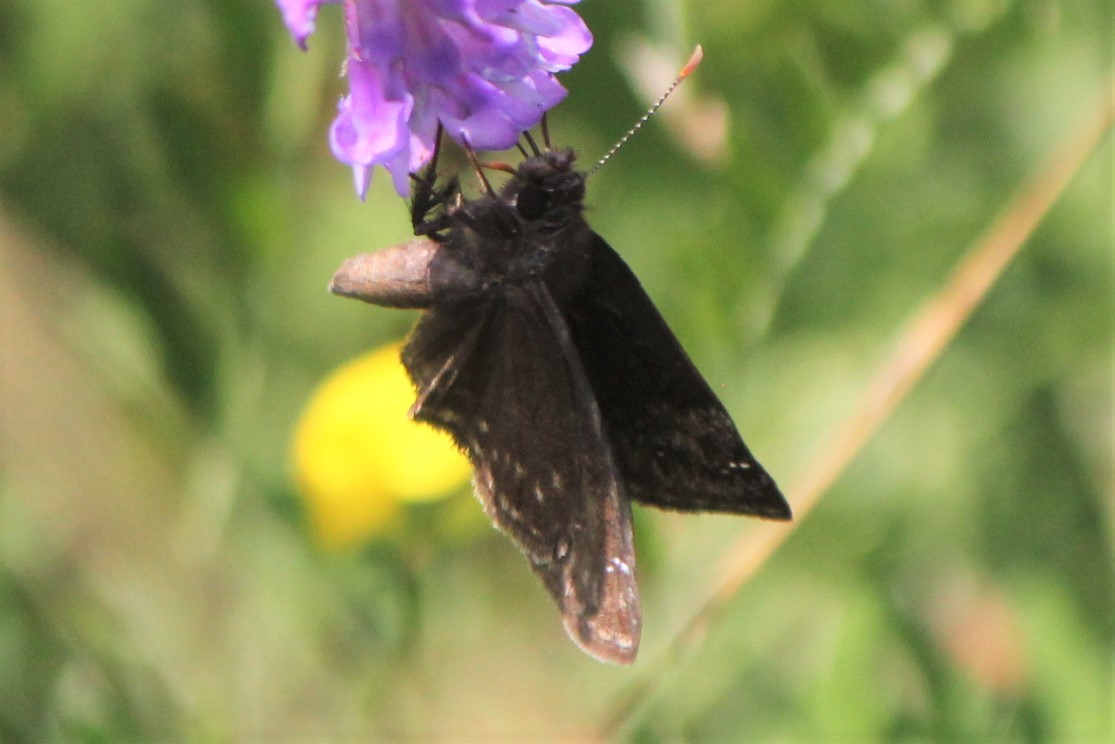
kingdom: Animalia
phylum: Arthropoda
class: Insecta
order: Lepidoptera
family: Hesperiidae
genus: Erynnis
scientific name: Erynnis baptisiae
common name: Wild indigo duskywing
